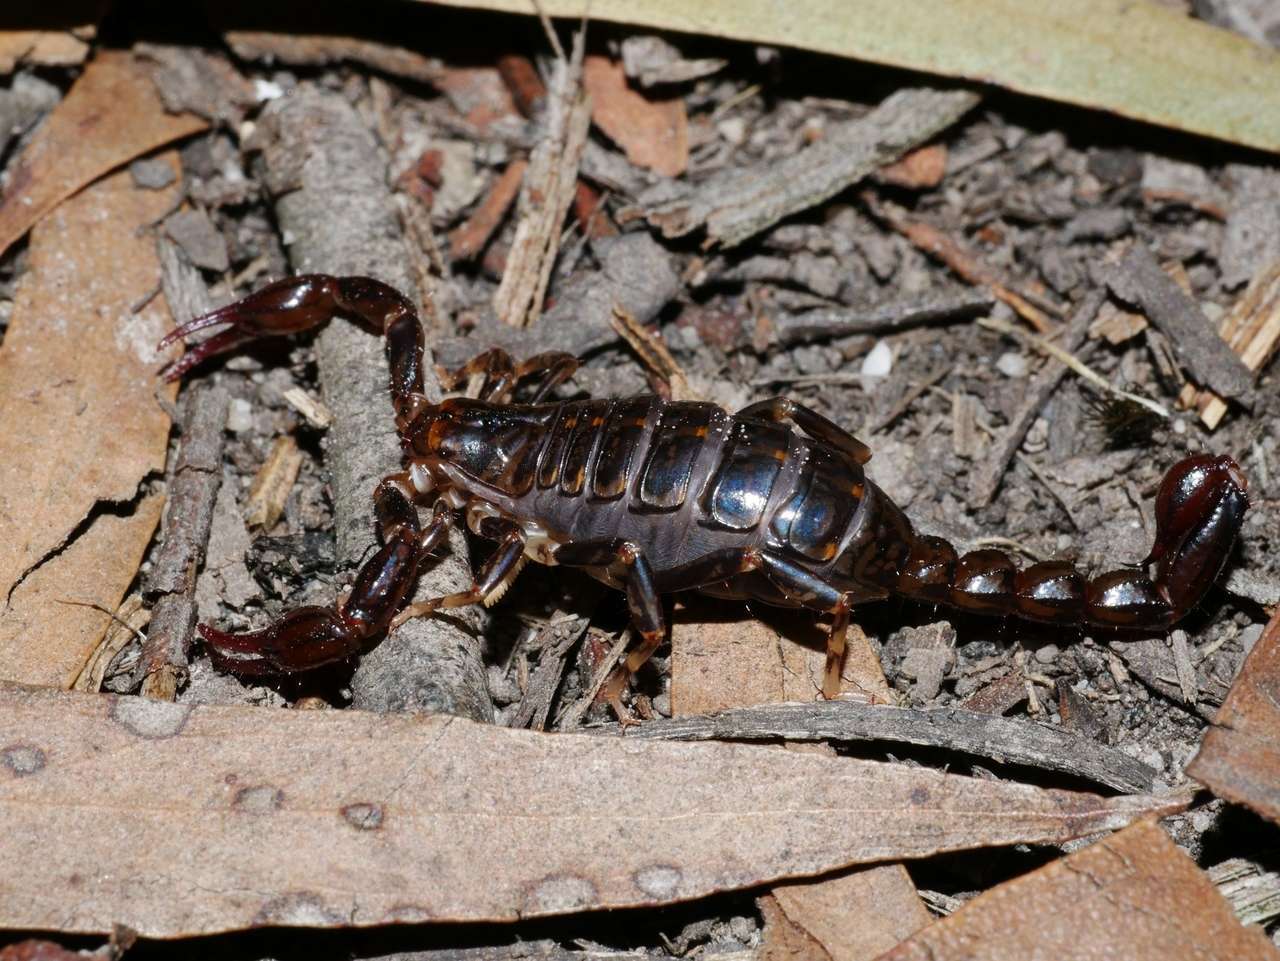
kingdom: Animalia
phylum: Arthropoda
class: Arachnida
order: Scorpiones
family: Bothriuridae
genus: Cercophonius
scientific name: Cercophonius squama
